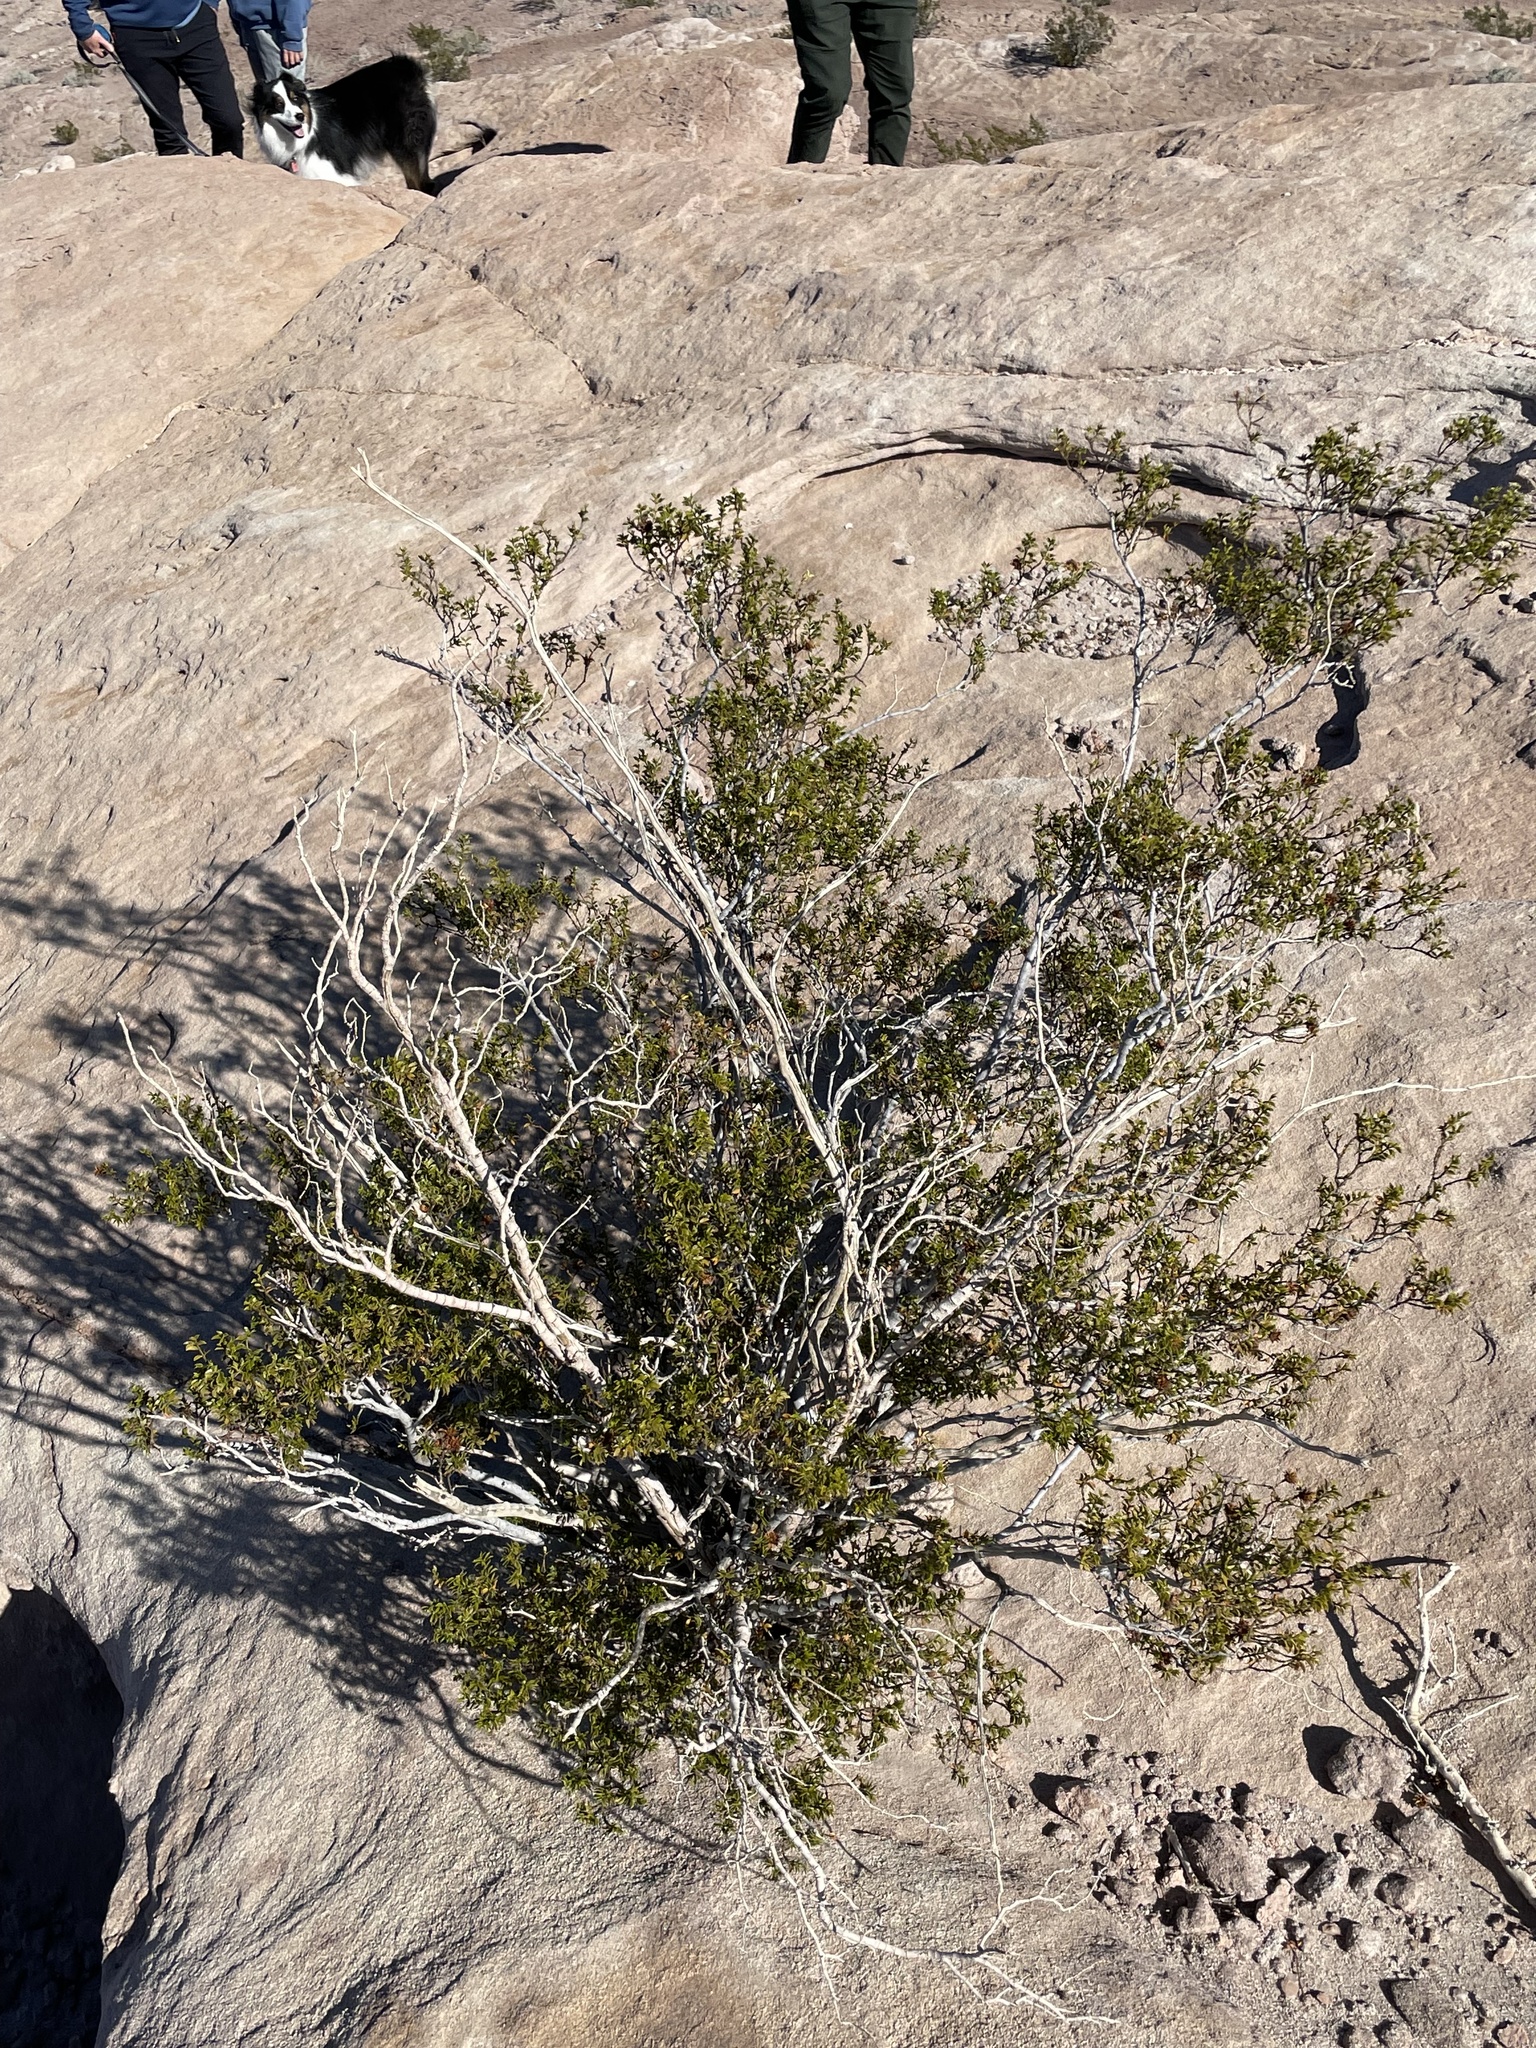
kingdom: Plantae
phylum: Tracheophyta
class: Magnoliopsida
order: Zygophyllales
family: Zygophyllaceae
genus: Larrea
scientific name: Larrea tridentata
